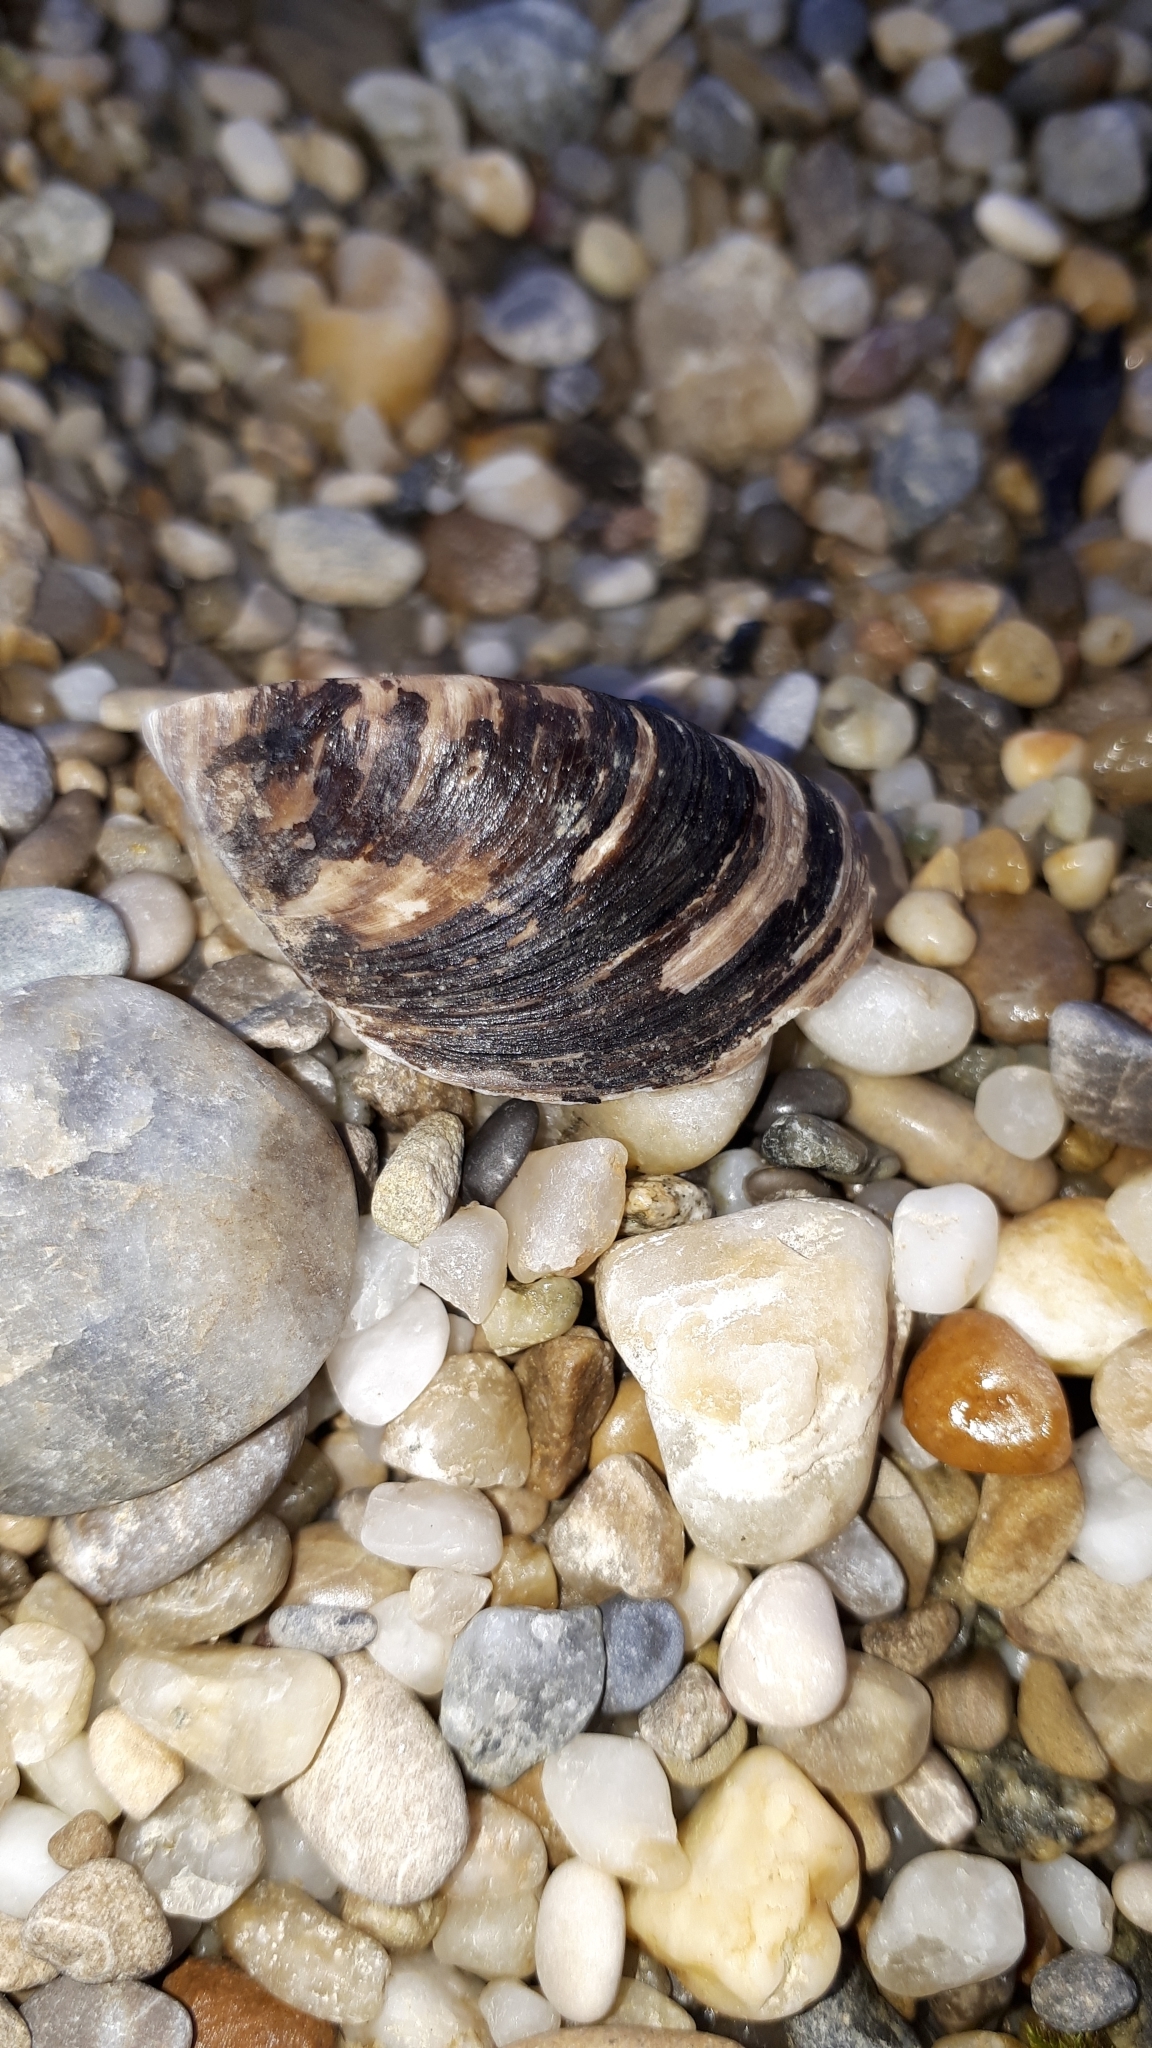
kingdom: Animalia
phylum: Mollusca
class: Bivalvia
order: Myida
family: Dreissenidae
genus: Dreissena
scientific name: Dreissena polymorpha
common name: Zebra mussel
